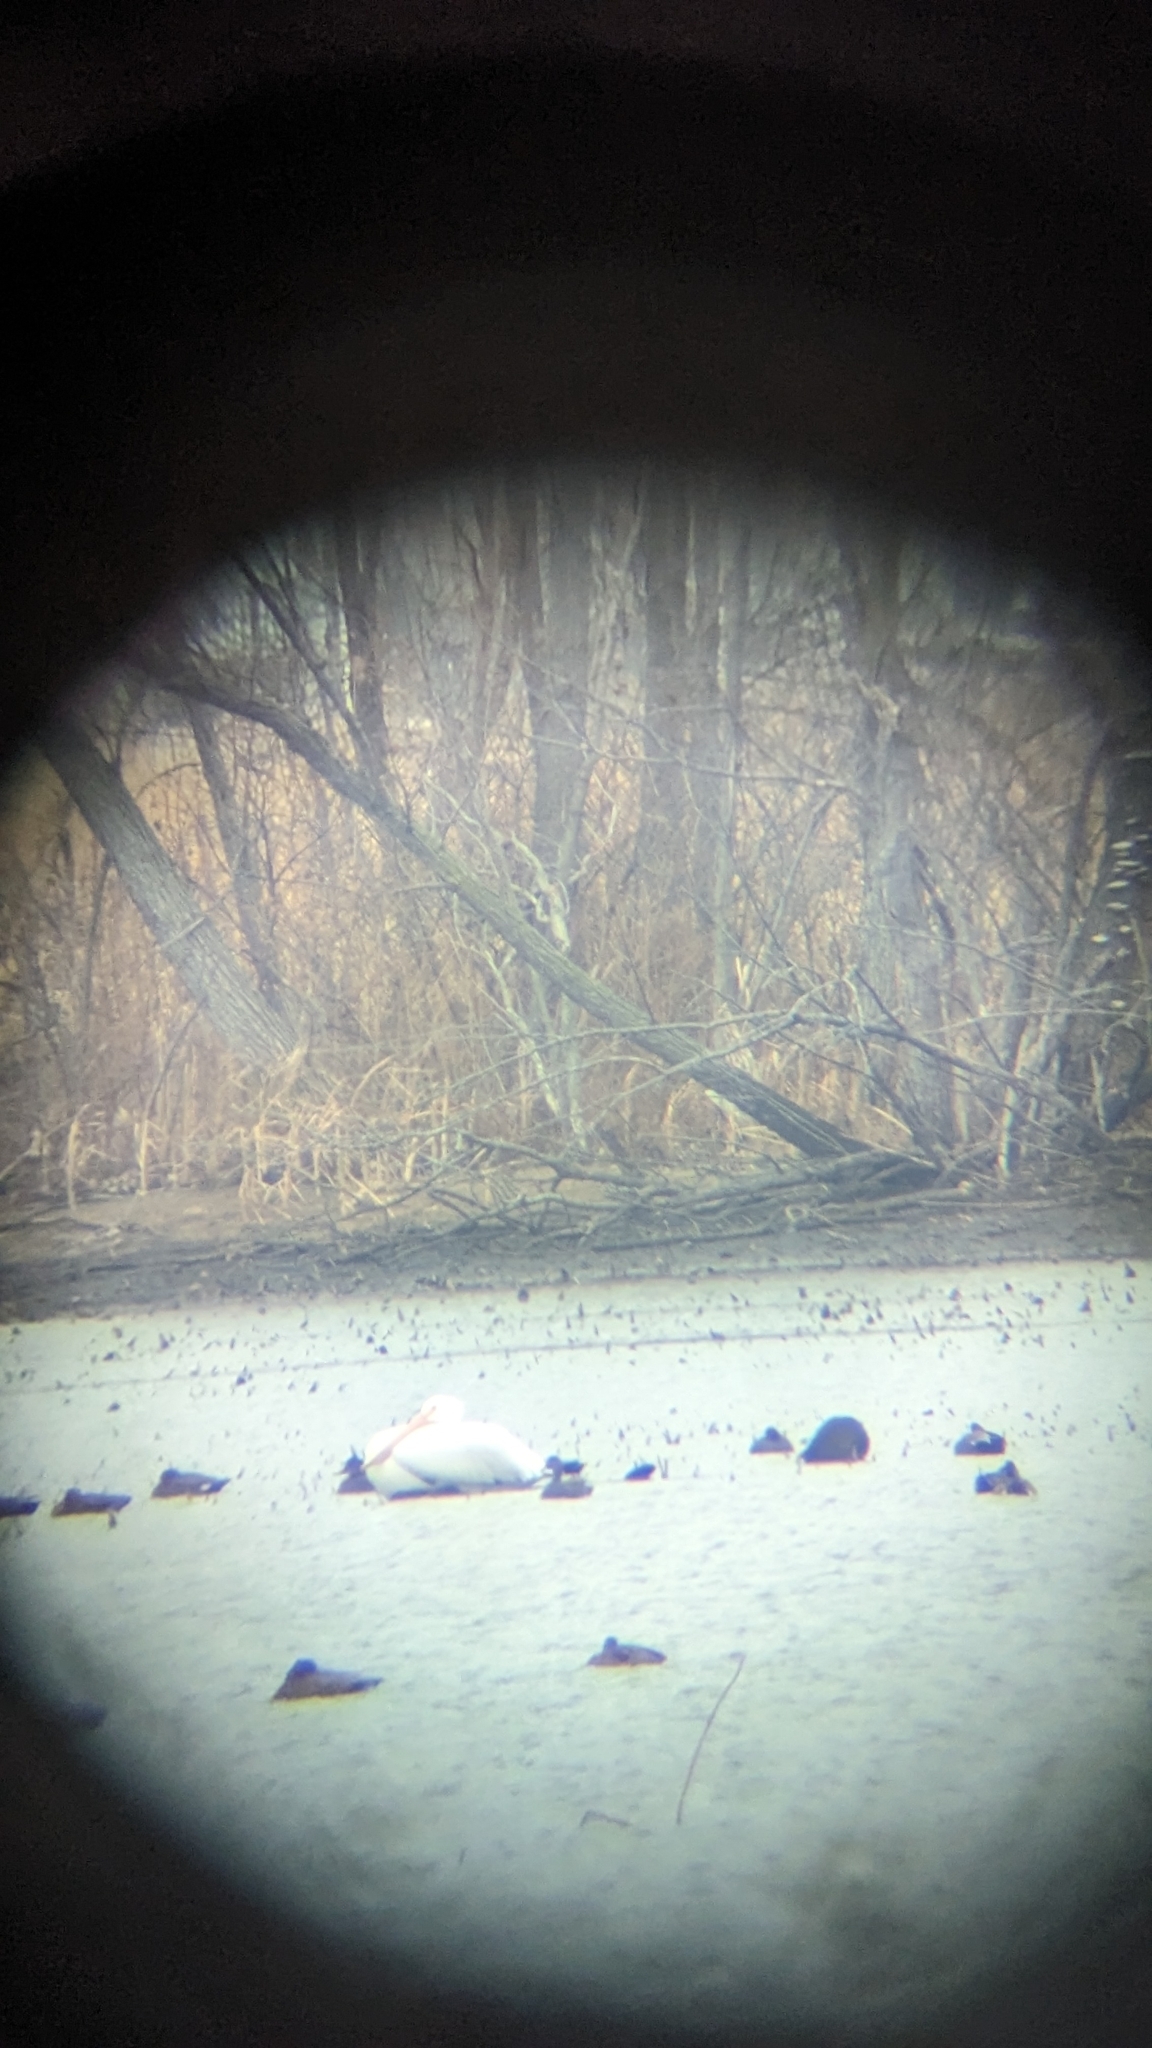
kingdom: Animalia
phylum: Chordata
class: Aves
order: Pelecaniformes
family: Pelecanidae
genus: Pelecanus
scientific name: Pelecanus erythrorhynchos
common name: American white pelican
